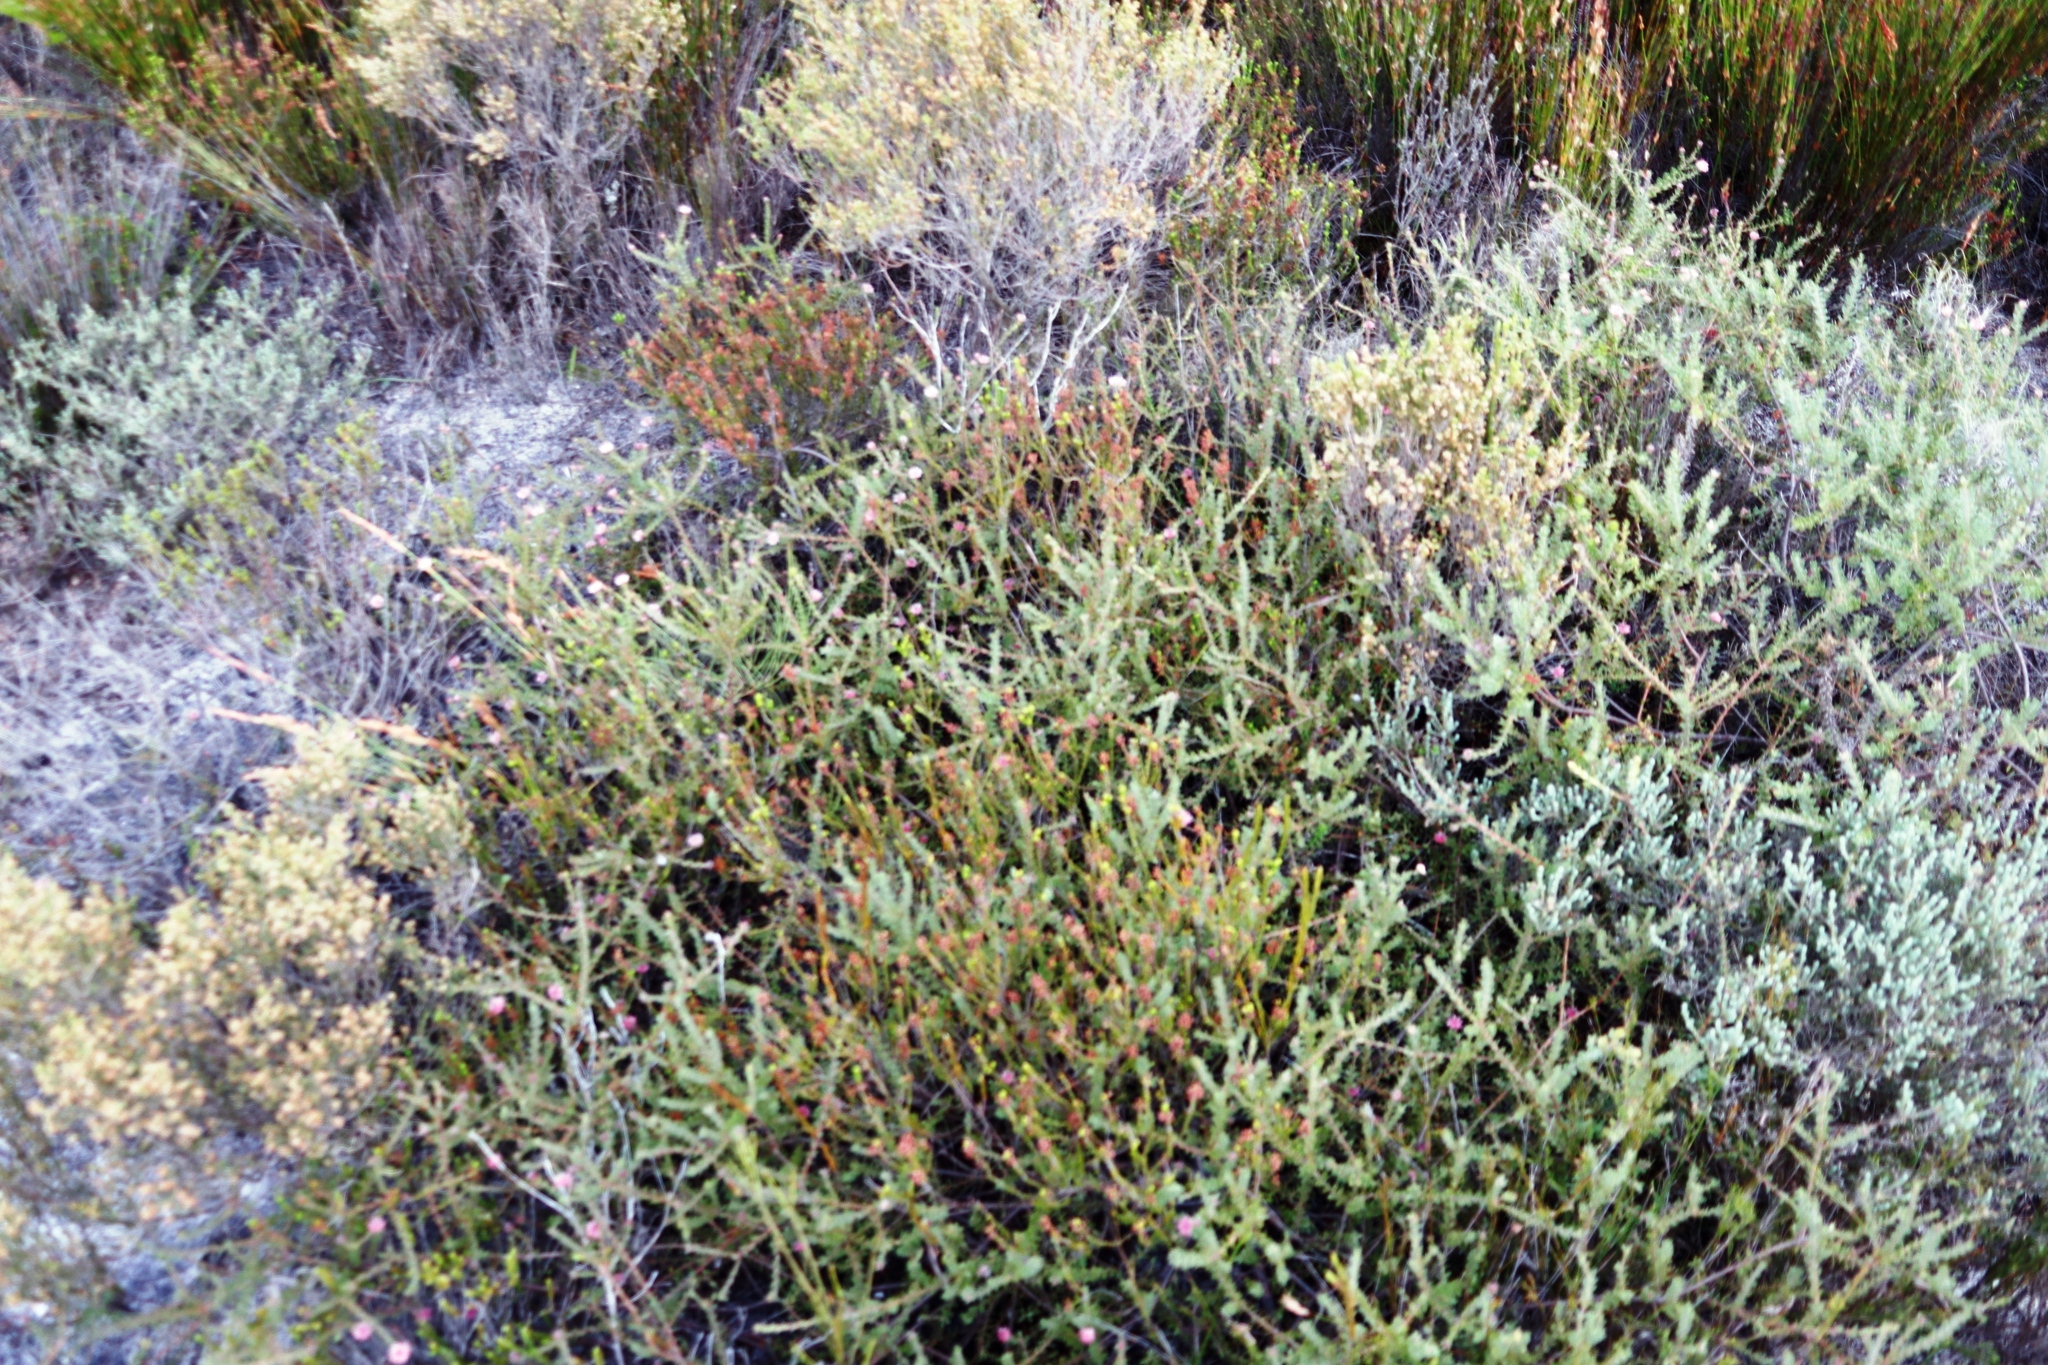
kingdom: Plantae
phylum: Tracheophyta
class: Magnoliopsida
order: Proteales
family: Proteaceae
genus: Diastella
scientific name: Diastella divaricata
